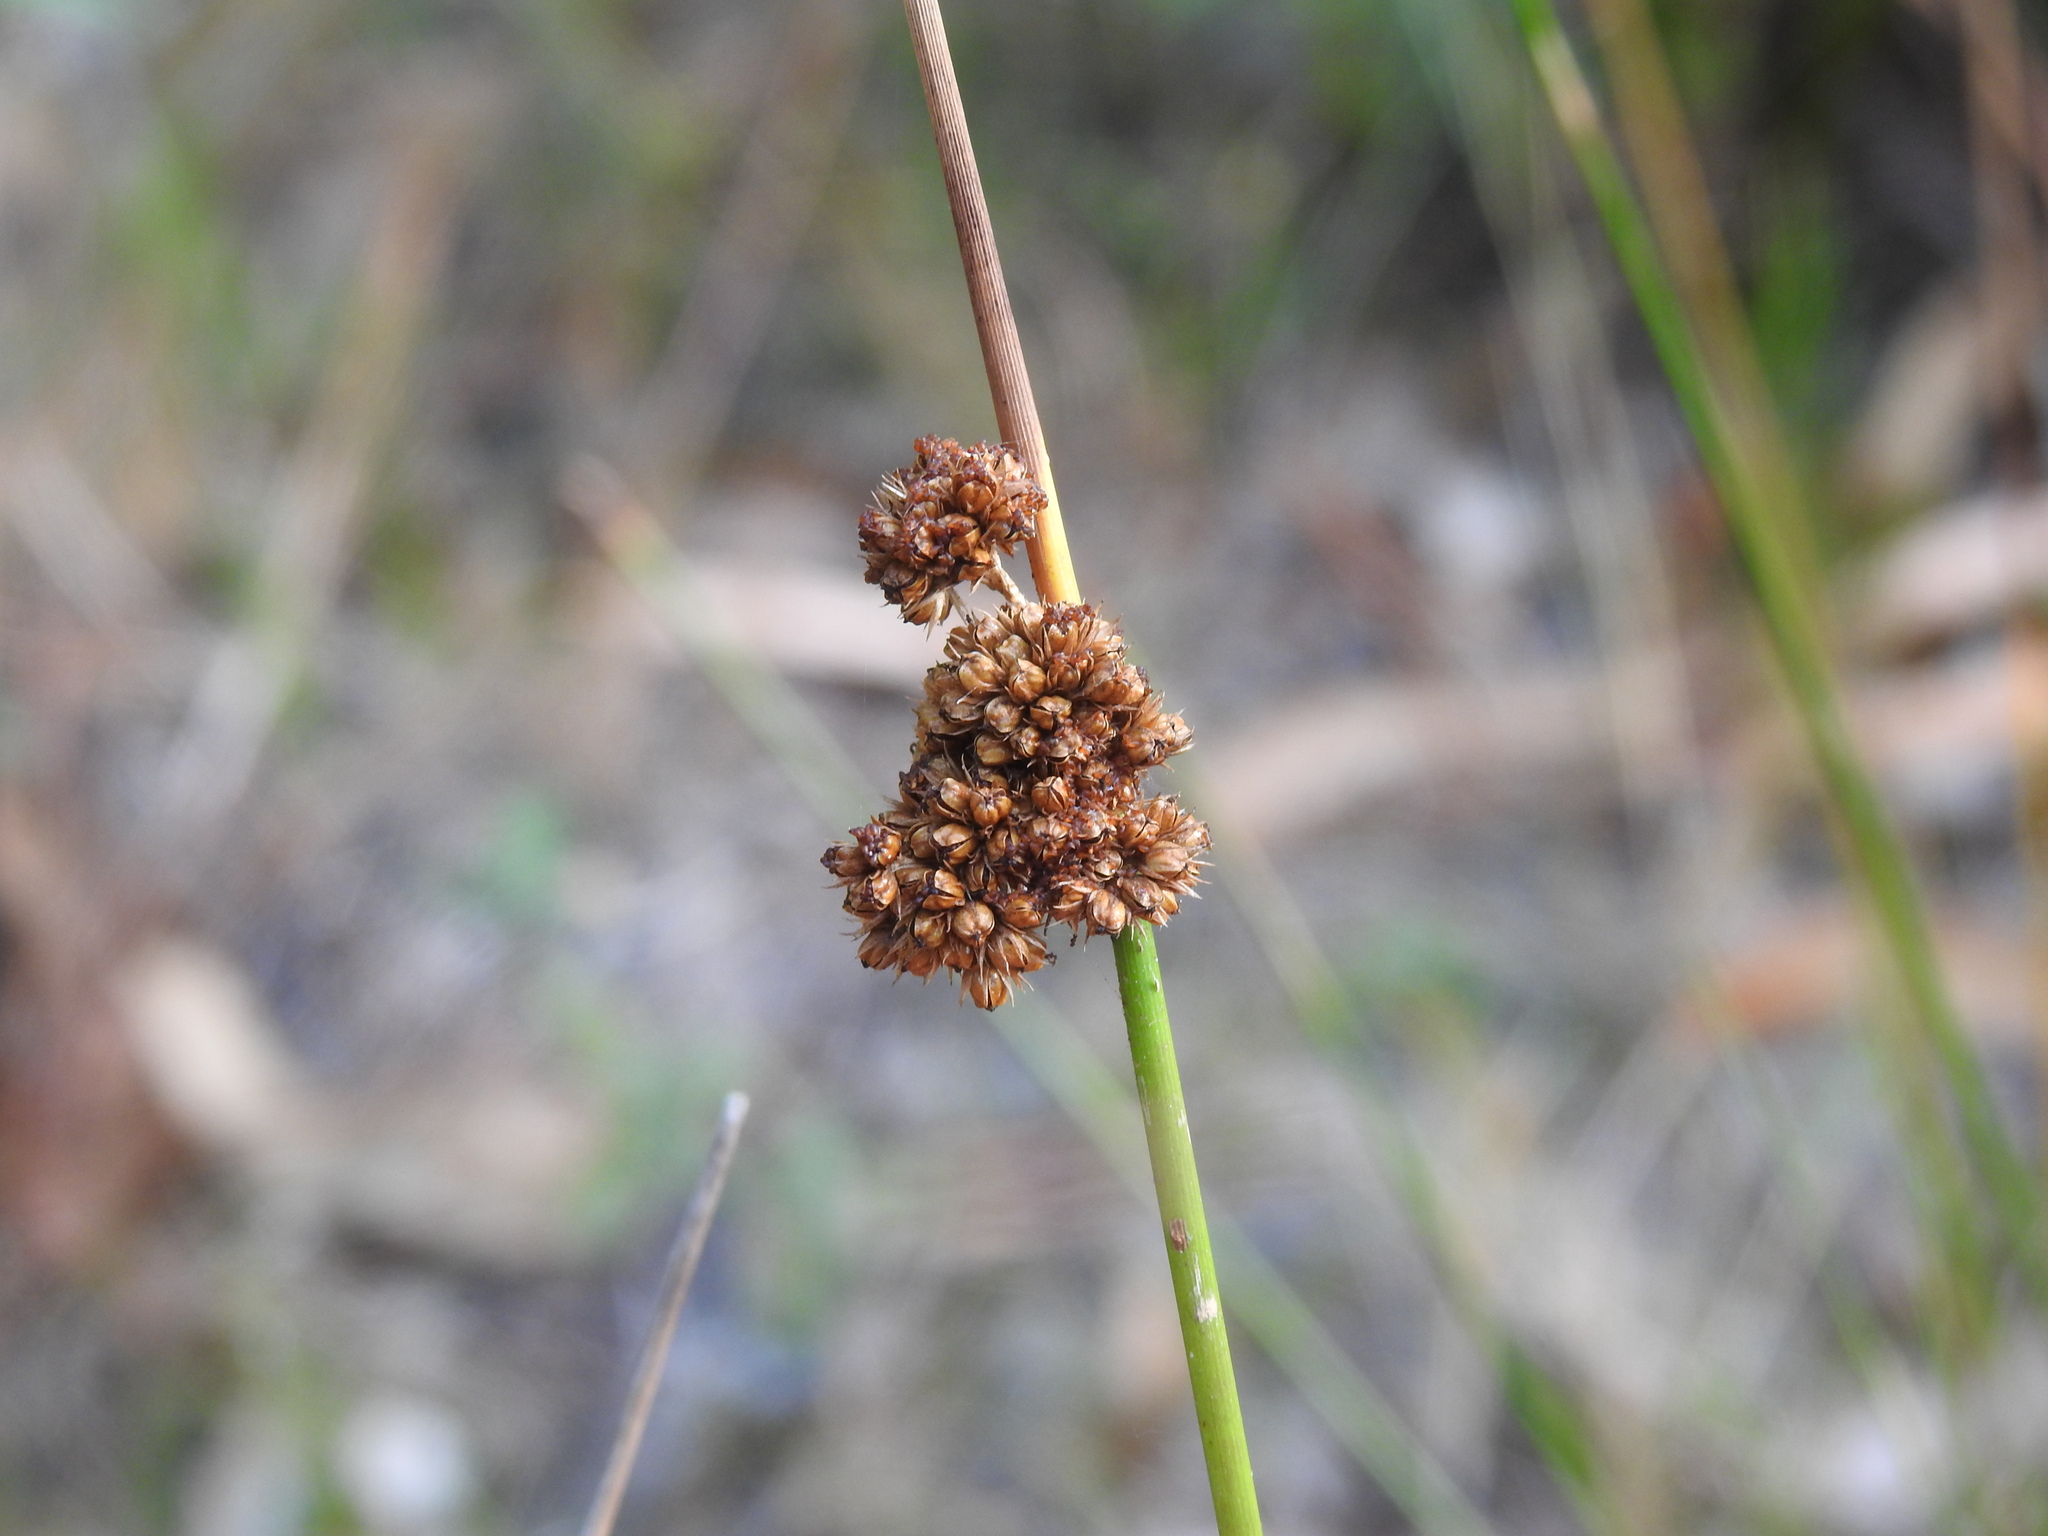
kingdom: Plantae
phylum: Tracheophyta
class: Liliopsida
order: Poales
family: Juncaceae
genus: Juncus
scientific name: Juncus conglomeratus
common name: Compact rush
